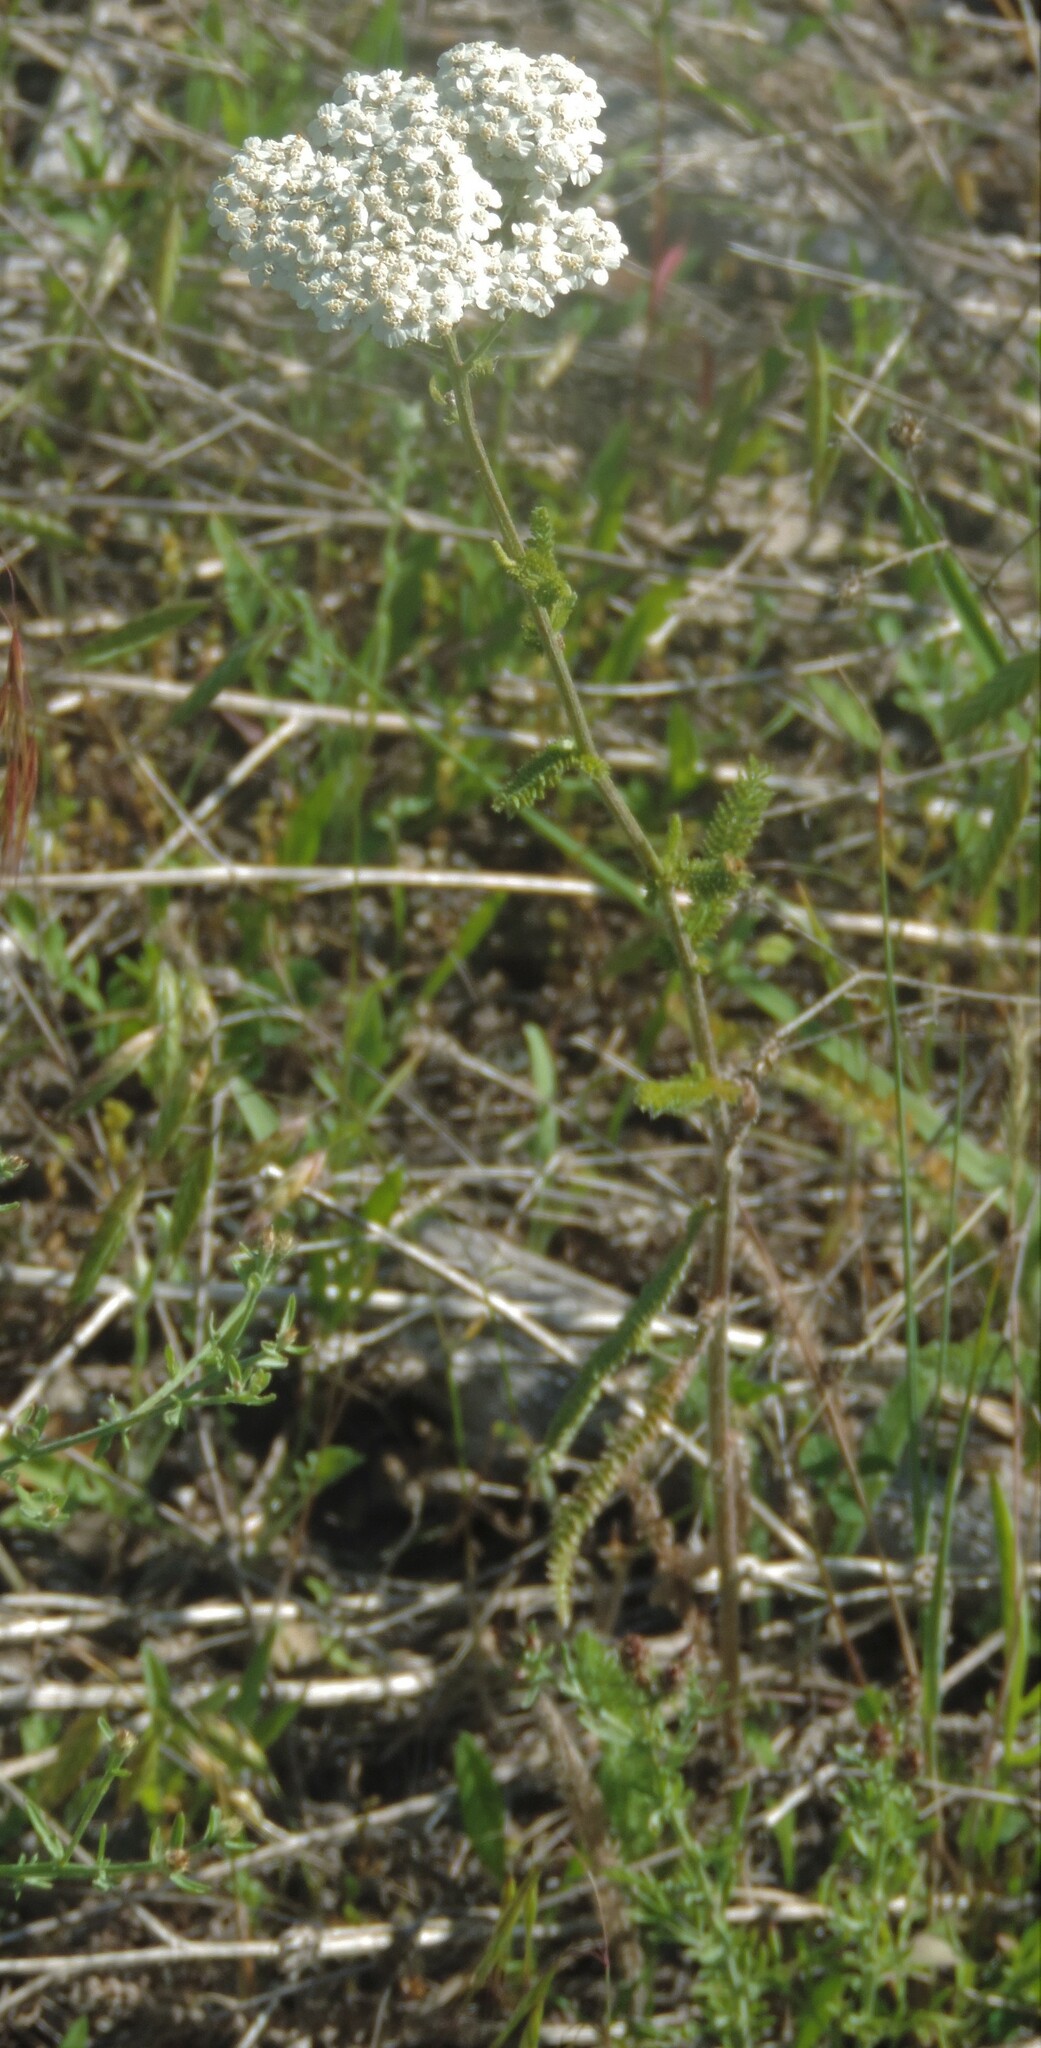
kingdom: Plantae
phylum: Tracheophyta
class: Magnoliopsida
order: Asterales
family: Asteraceae
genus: Achillea
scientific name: Achillea millefolium
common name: Yarrow
